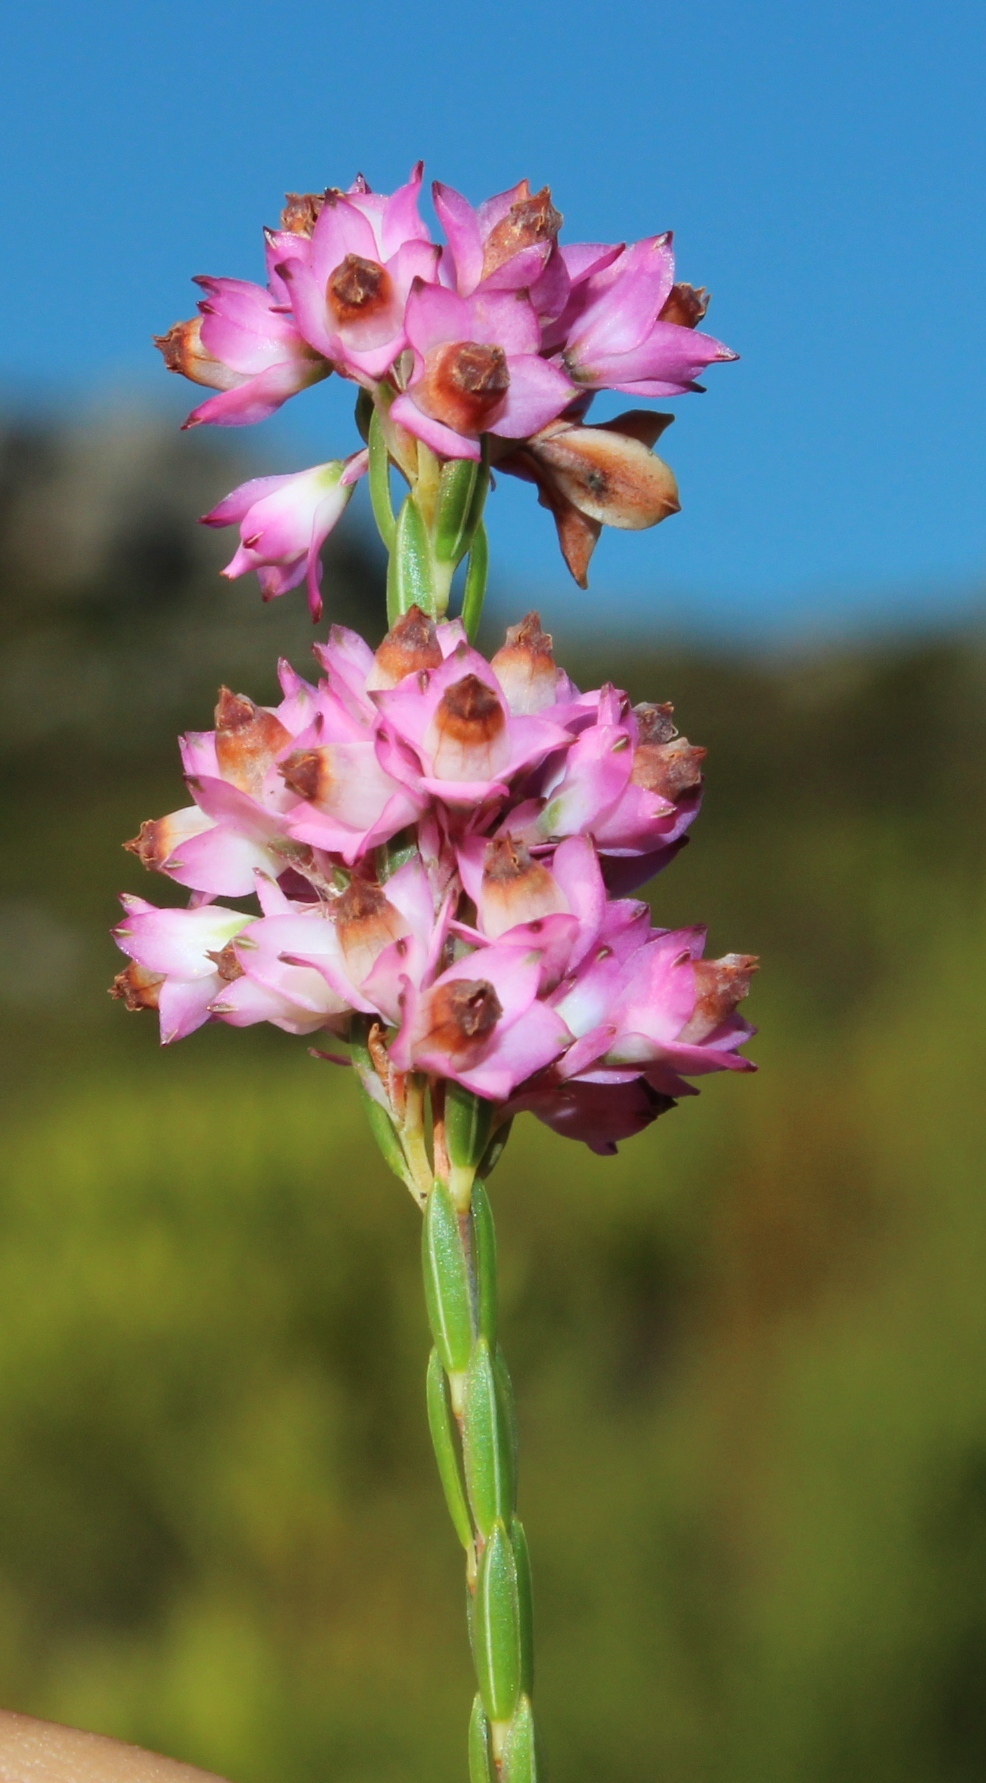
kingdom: Plantae
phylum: Tracheophyta
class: Magnoliopsida
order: Ericales
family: Ericaceae
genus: Erica
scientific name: Erica corifolia
